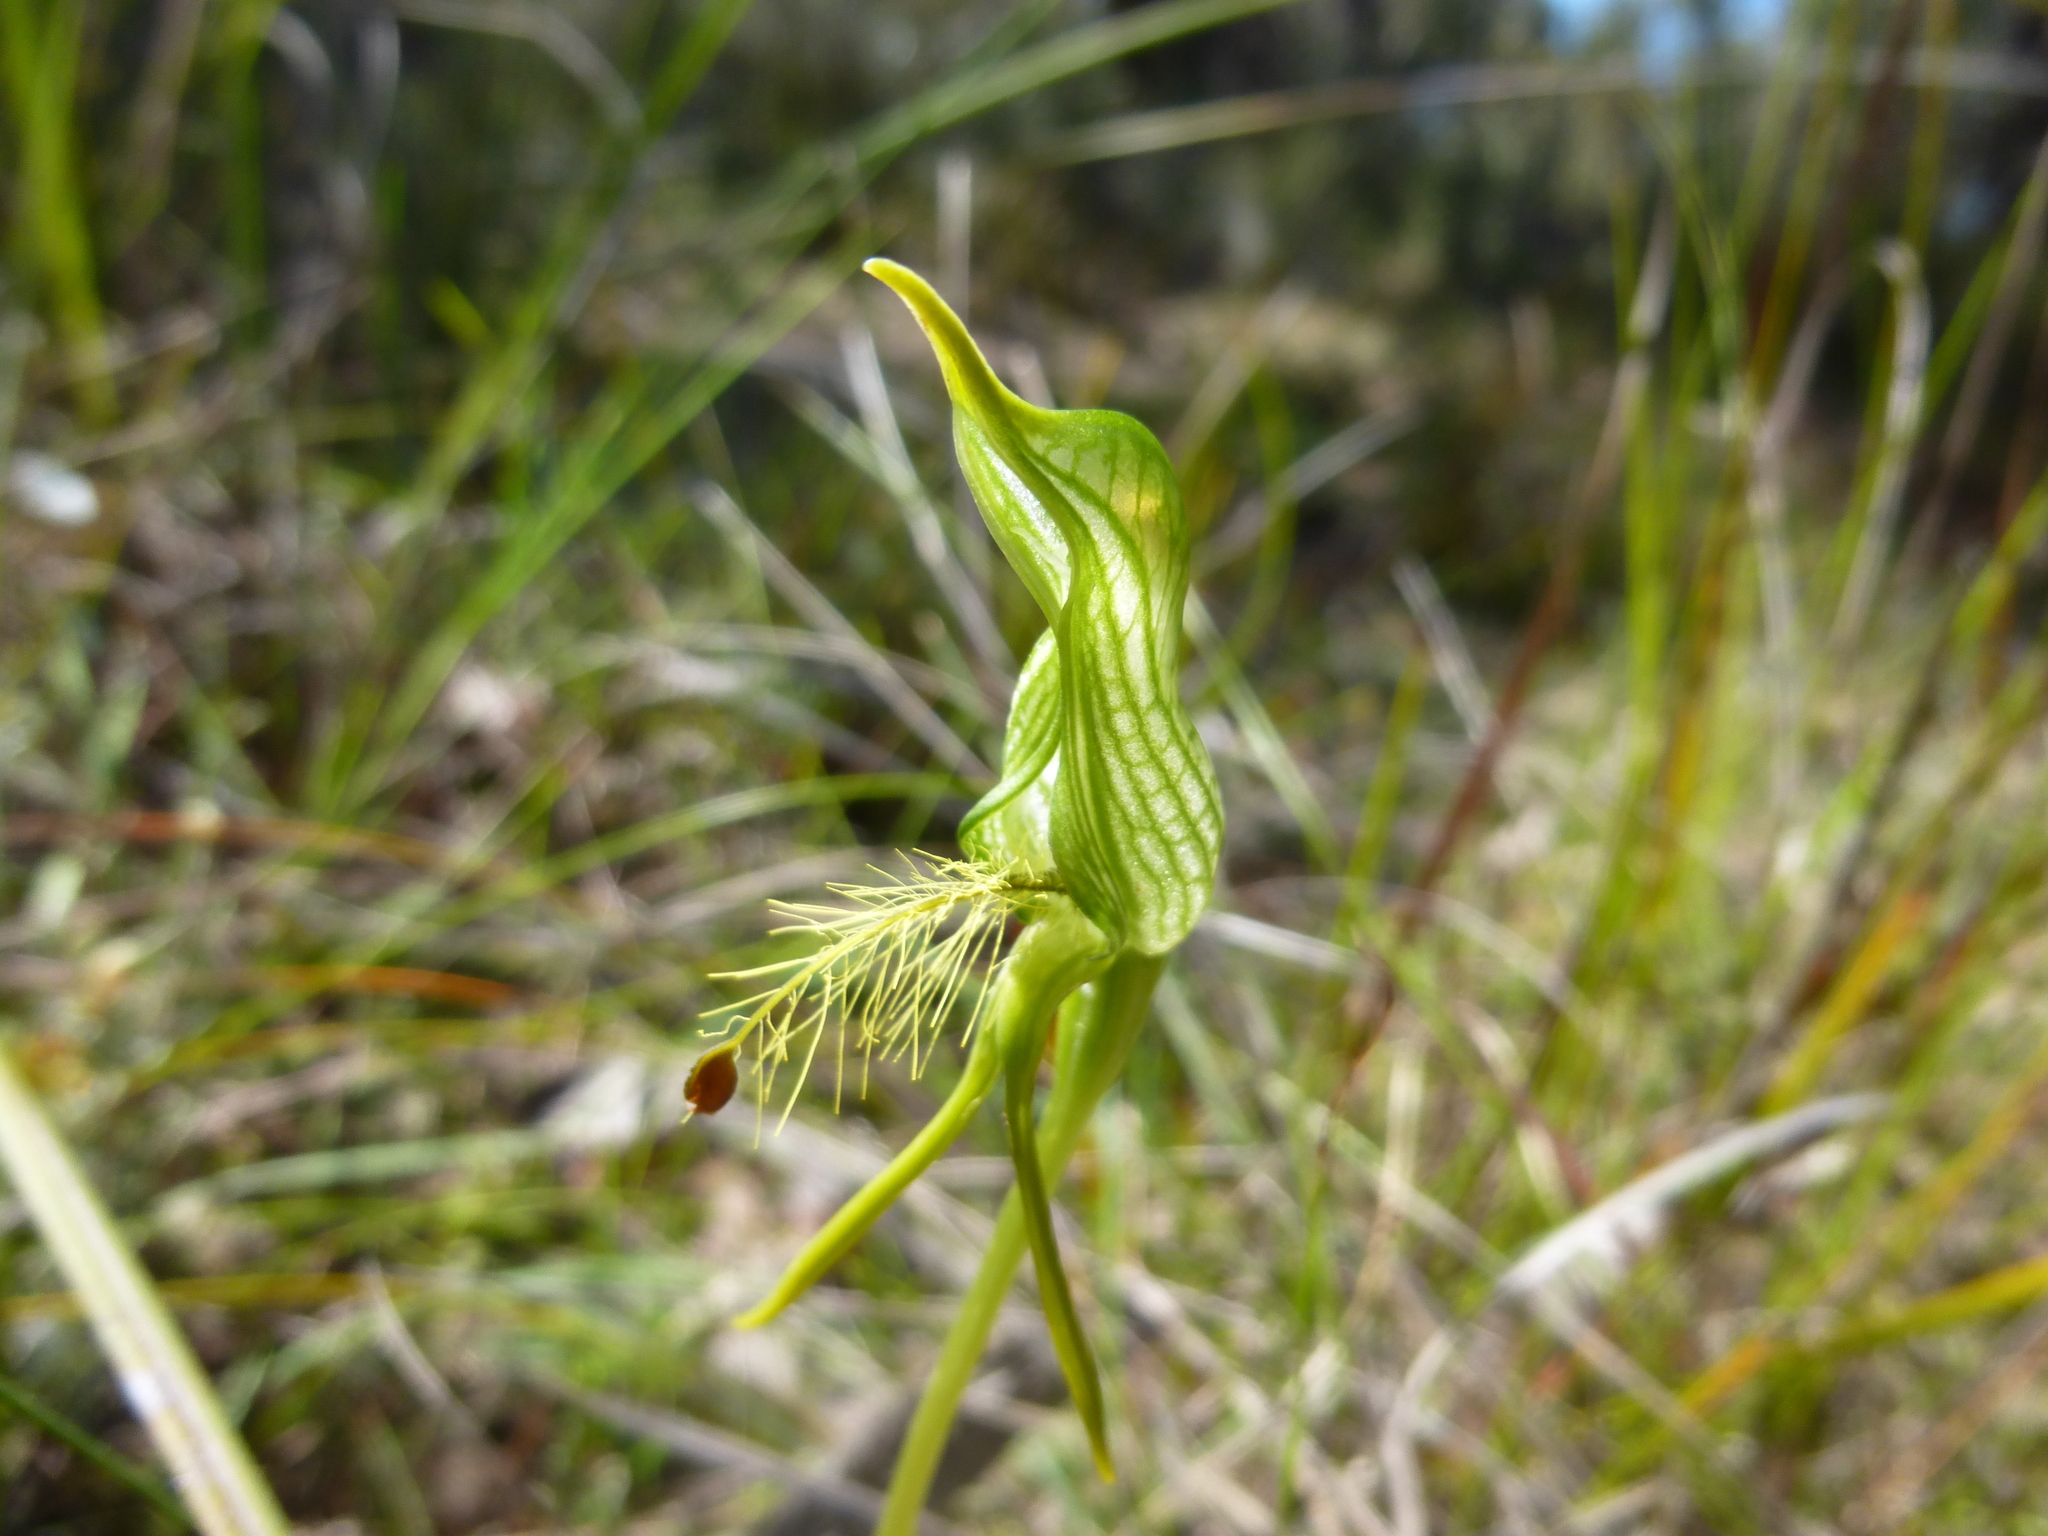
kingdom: Plantae
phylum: Tracheophyta
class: Liliopsida
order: Asparagales
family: Orchidaceae
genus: Pterostylis
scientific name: Pterostylis plumosa
